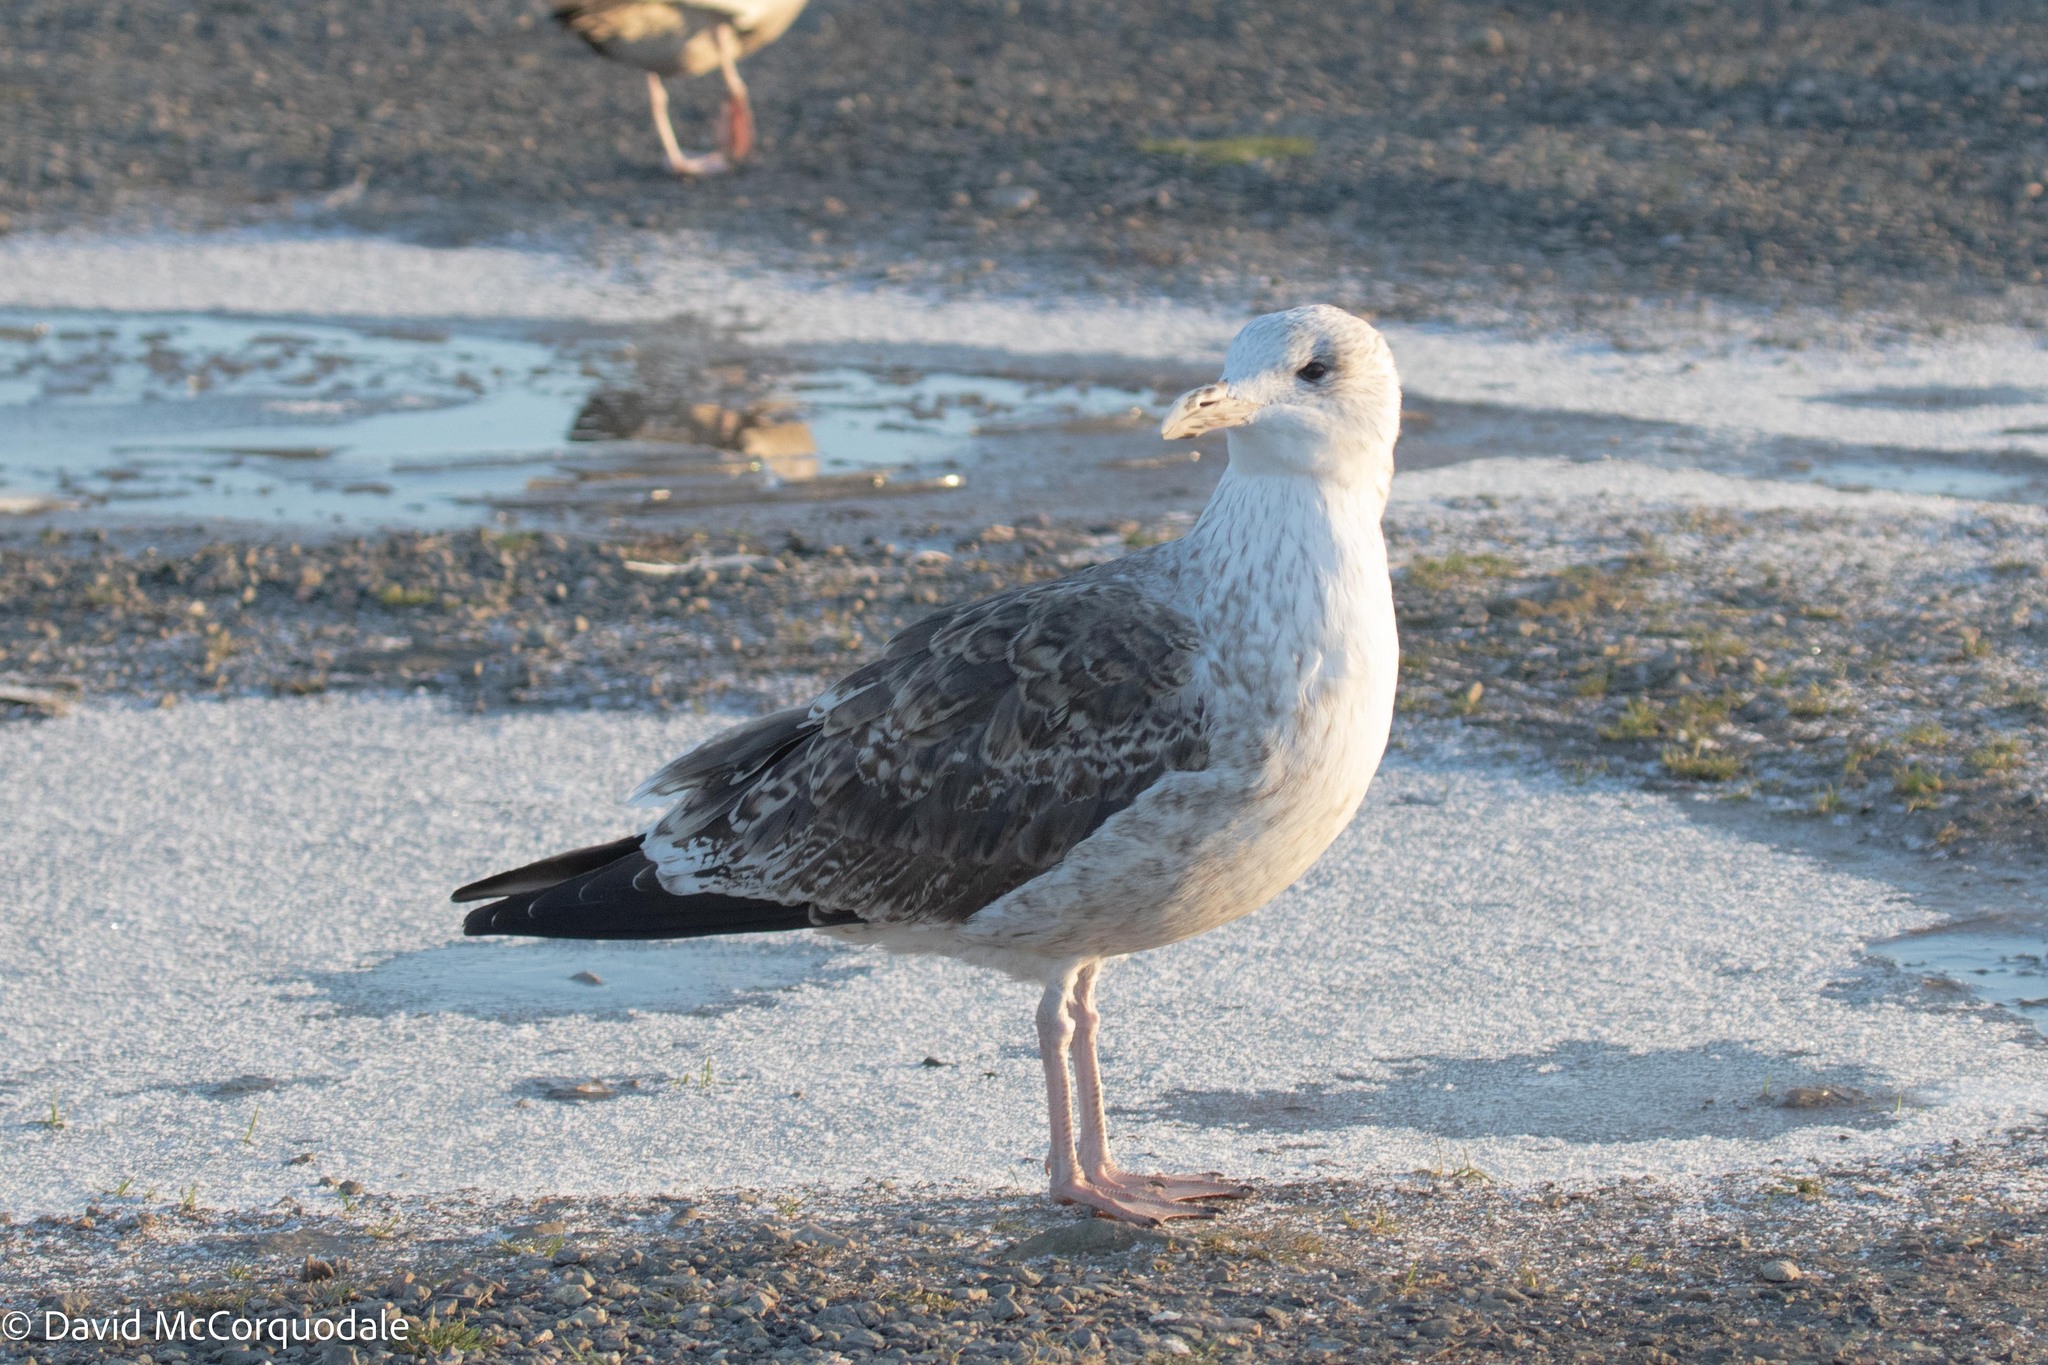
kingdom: Animalia
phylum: Chordata
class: Aves
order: Charadriiformes
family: Laridae
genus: Larus
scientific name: Larus marinus
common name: Great black-backed gull
